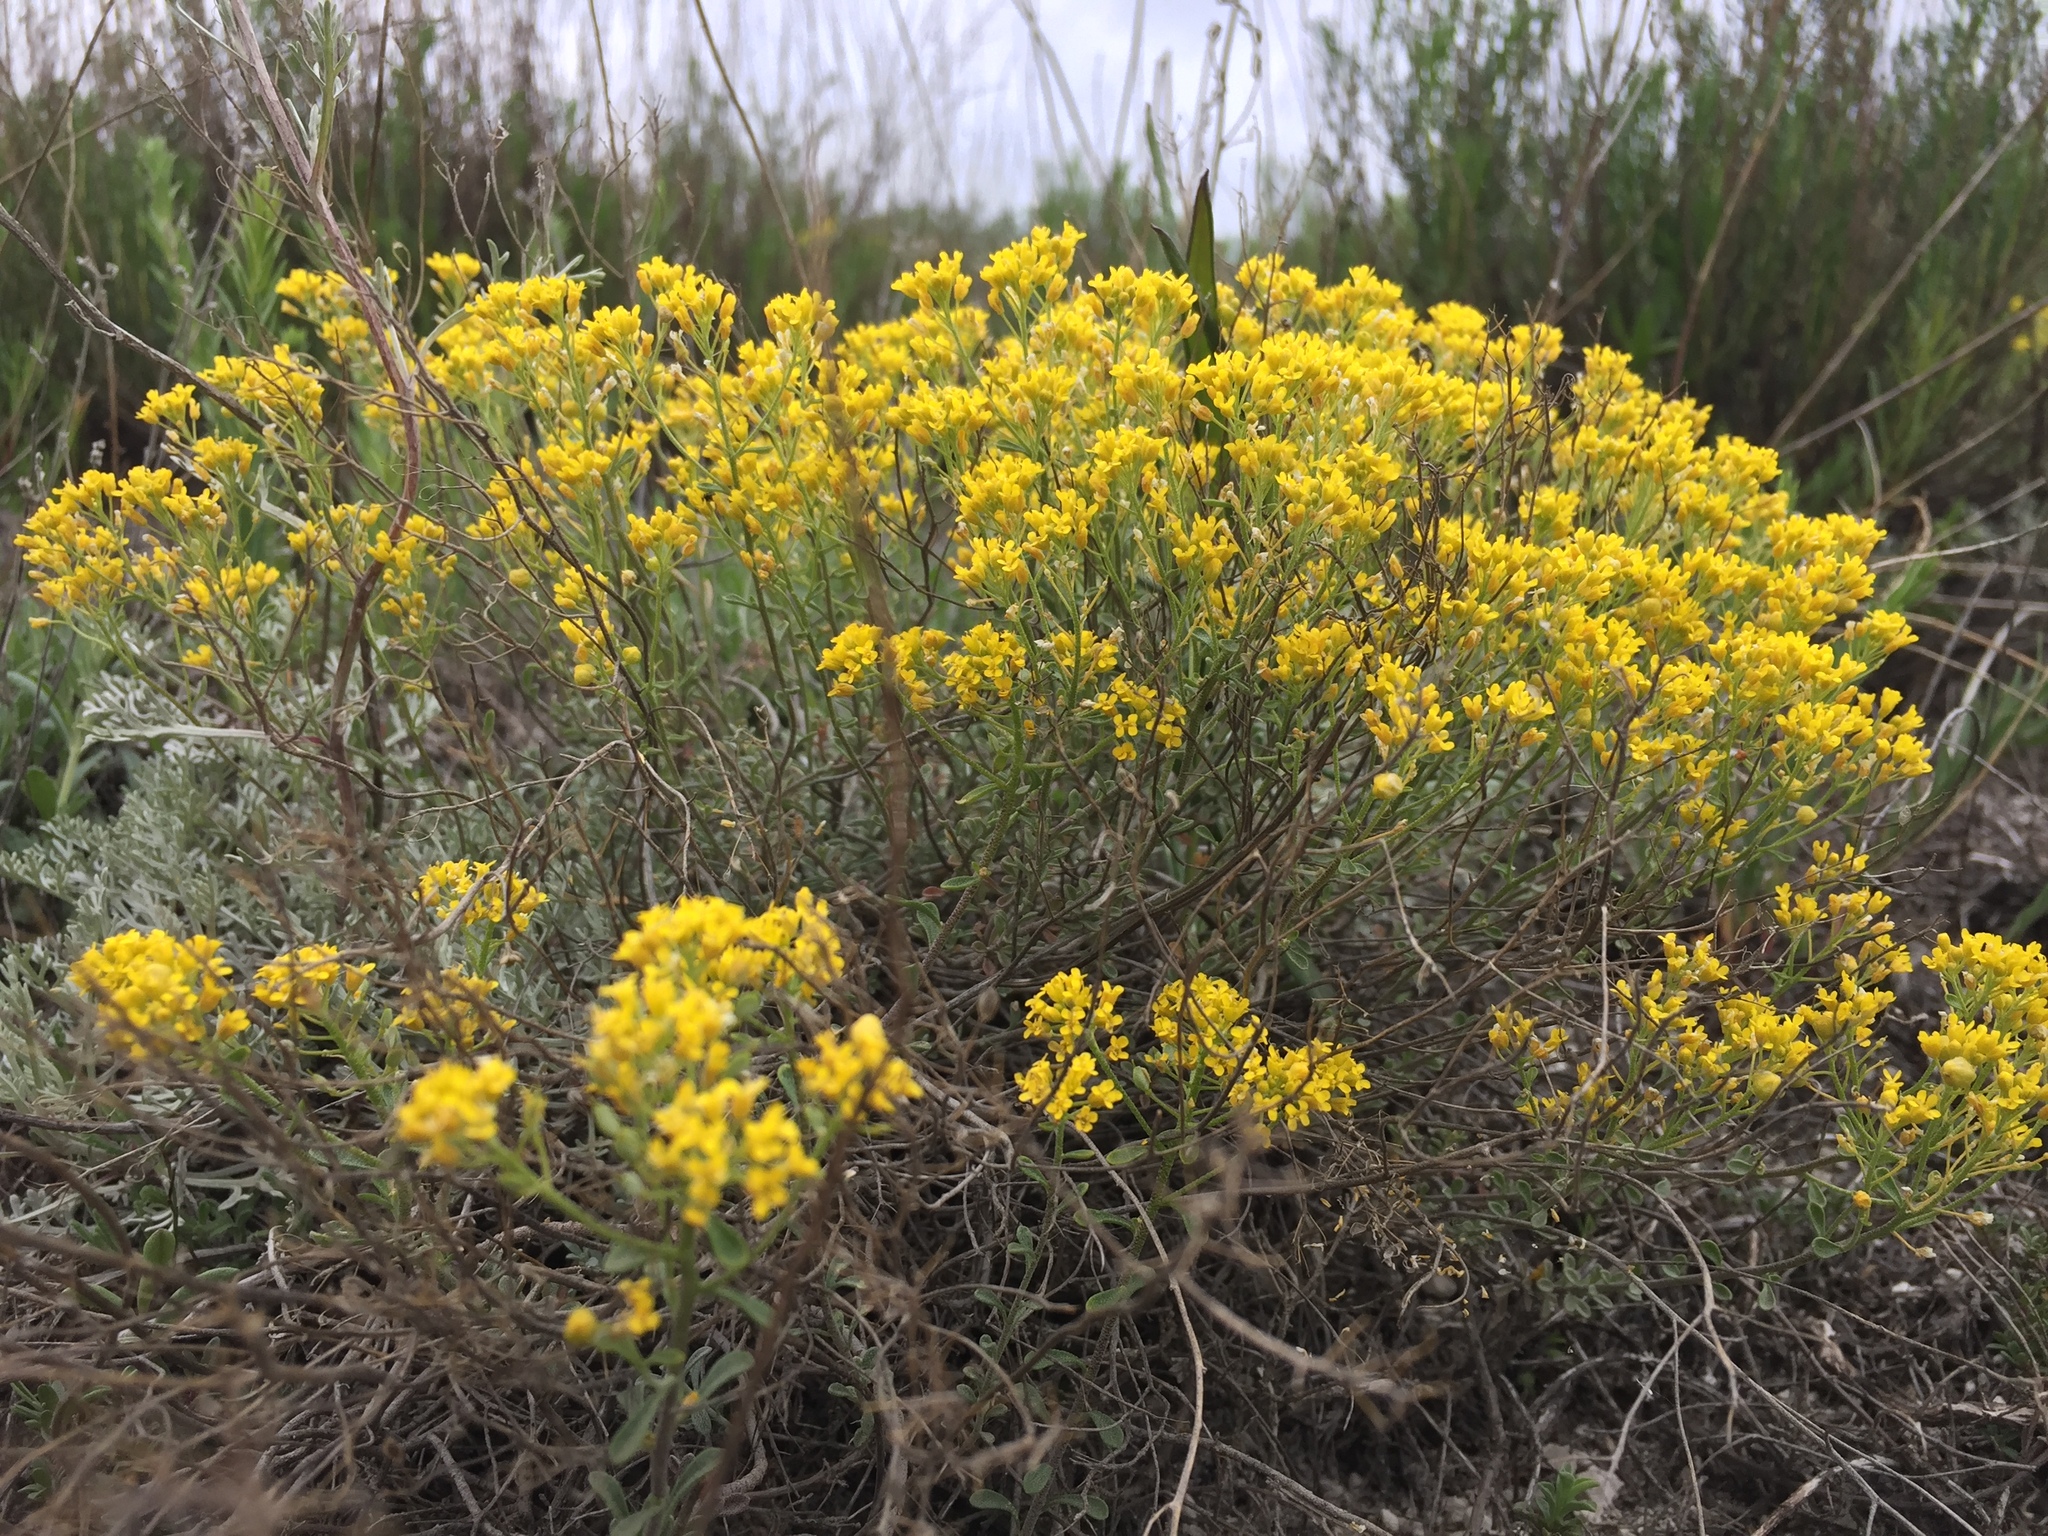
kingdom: Plantae
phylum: Tracheophyta
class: Magnoliopsida
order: Brassicales
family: Brassicaceae
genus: Odontarrhena
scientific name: Odontarrhena tortuosa
